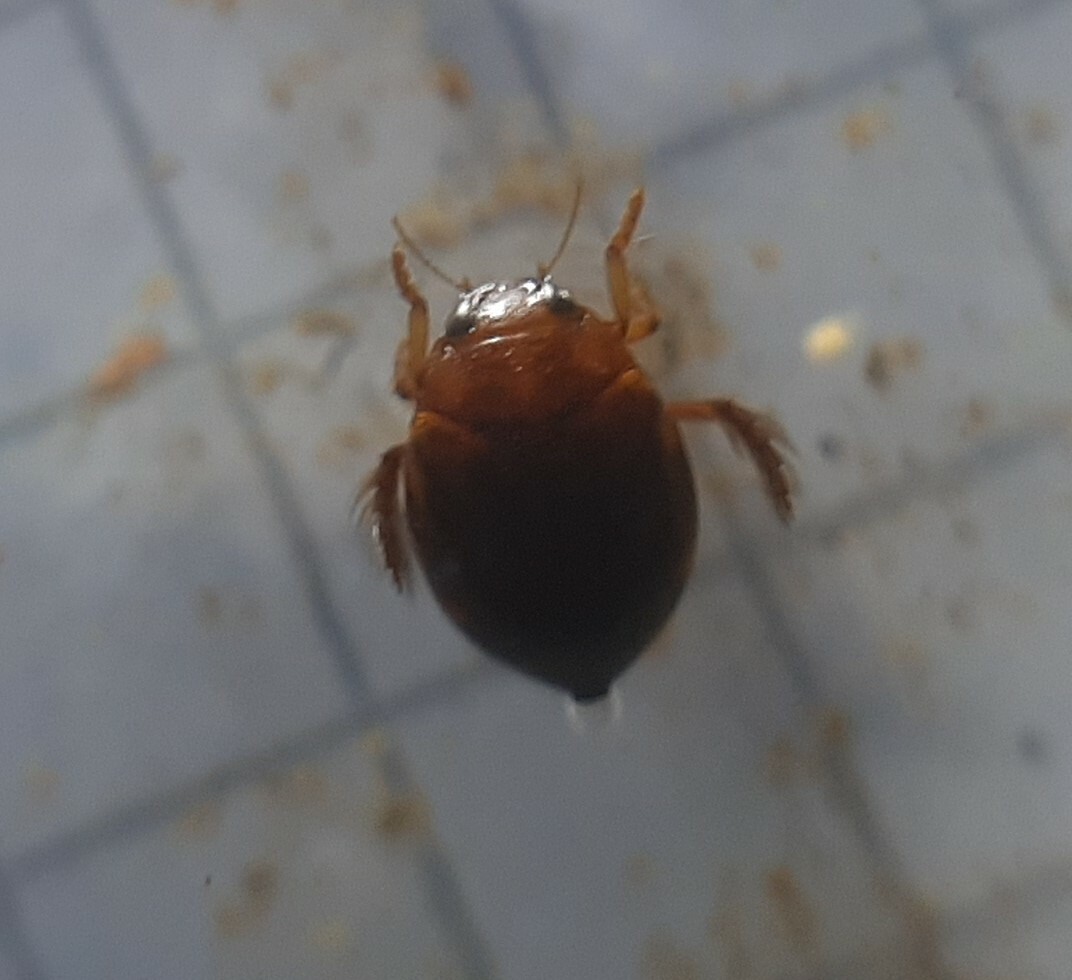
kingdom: Animalia
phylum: Arthropoda
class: Insecta
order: Coleoptera
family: Dytiscidae
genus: Hyphydrus
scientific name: Hyphydrus ovatus
